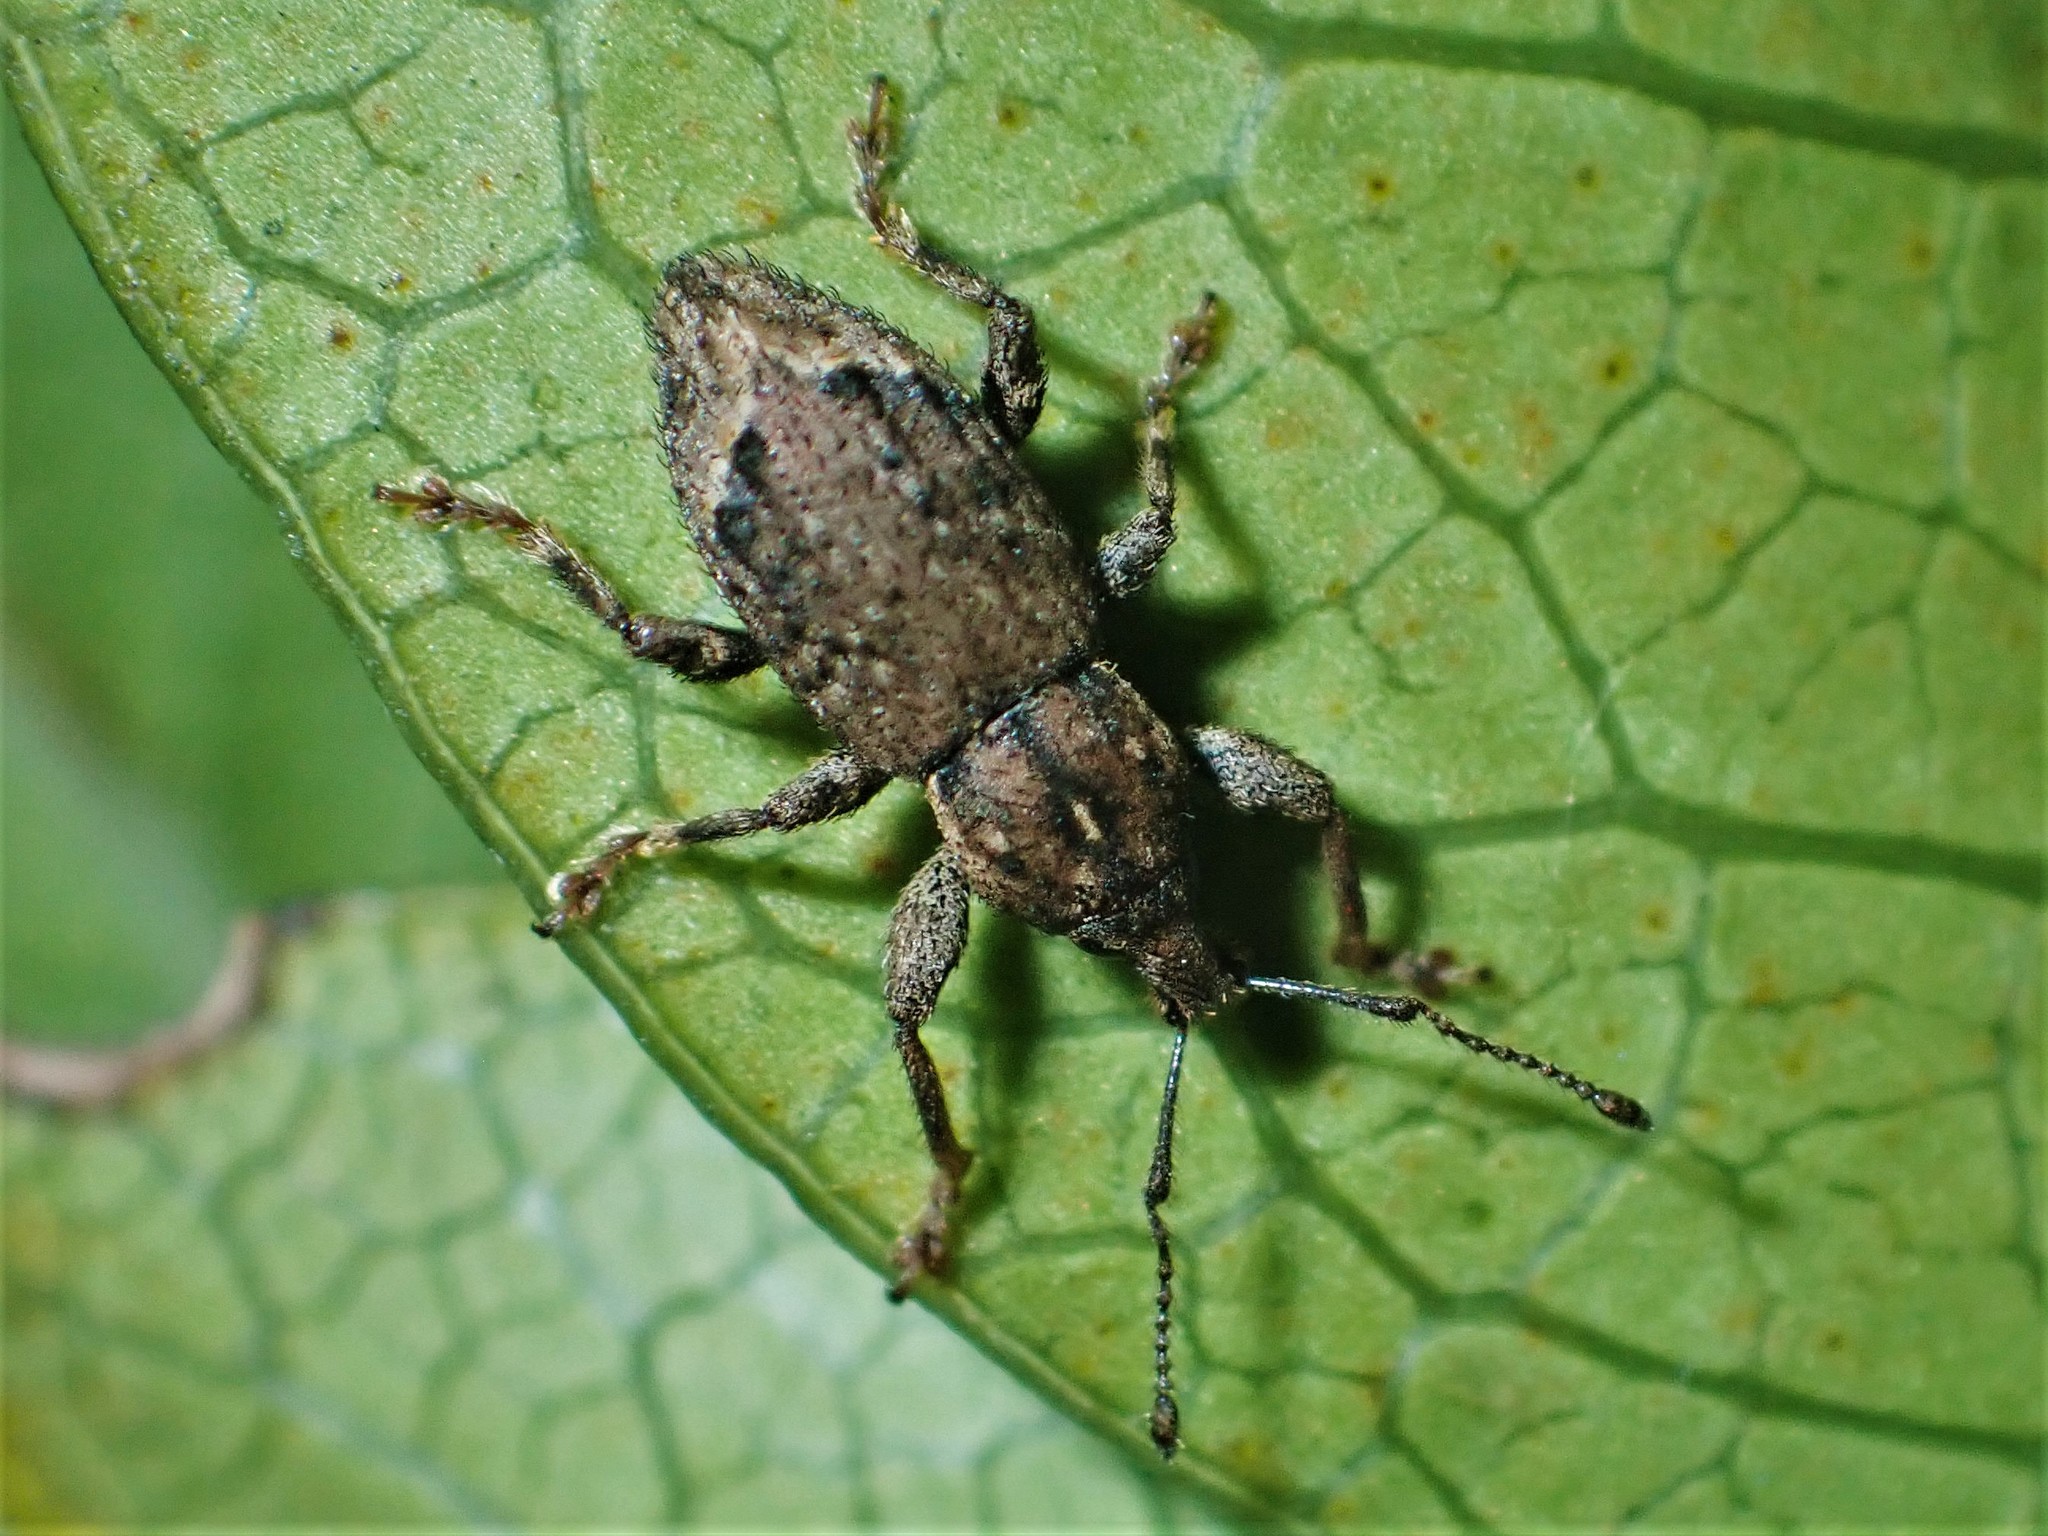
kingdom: Animalia
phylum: Arthropoda
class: Insecta
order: Coleoptera
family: Curculionidae
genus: Chalepistes
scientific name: Chalepistes compressus
